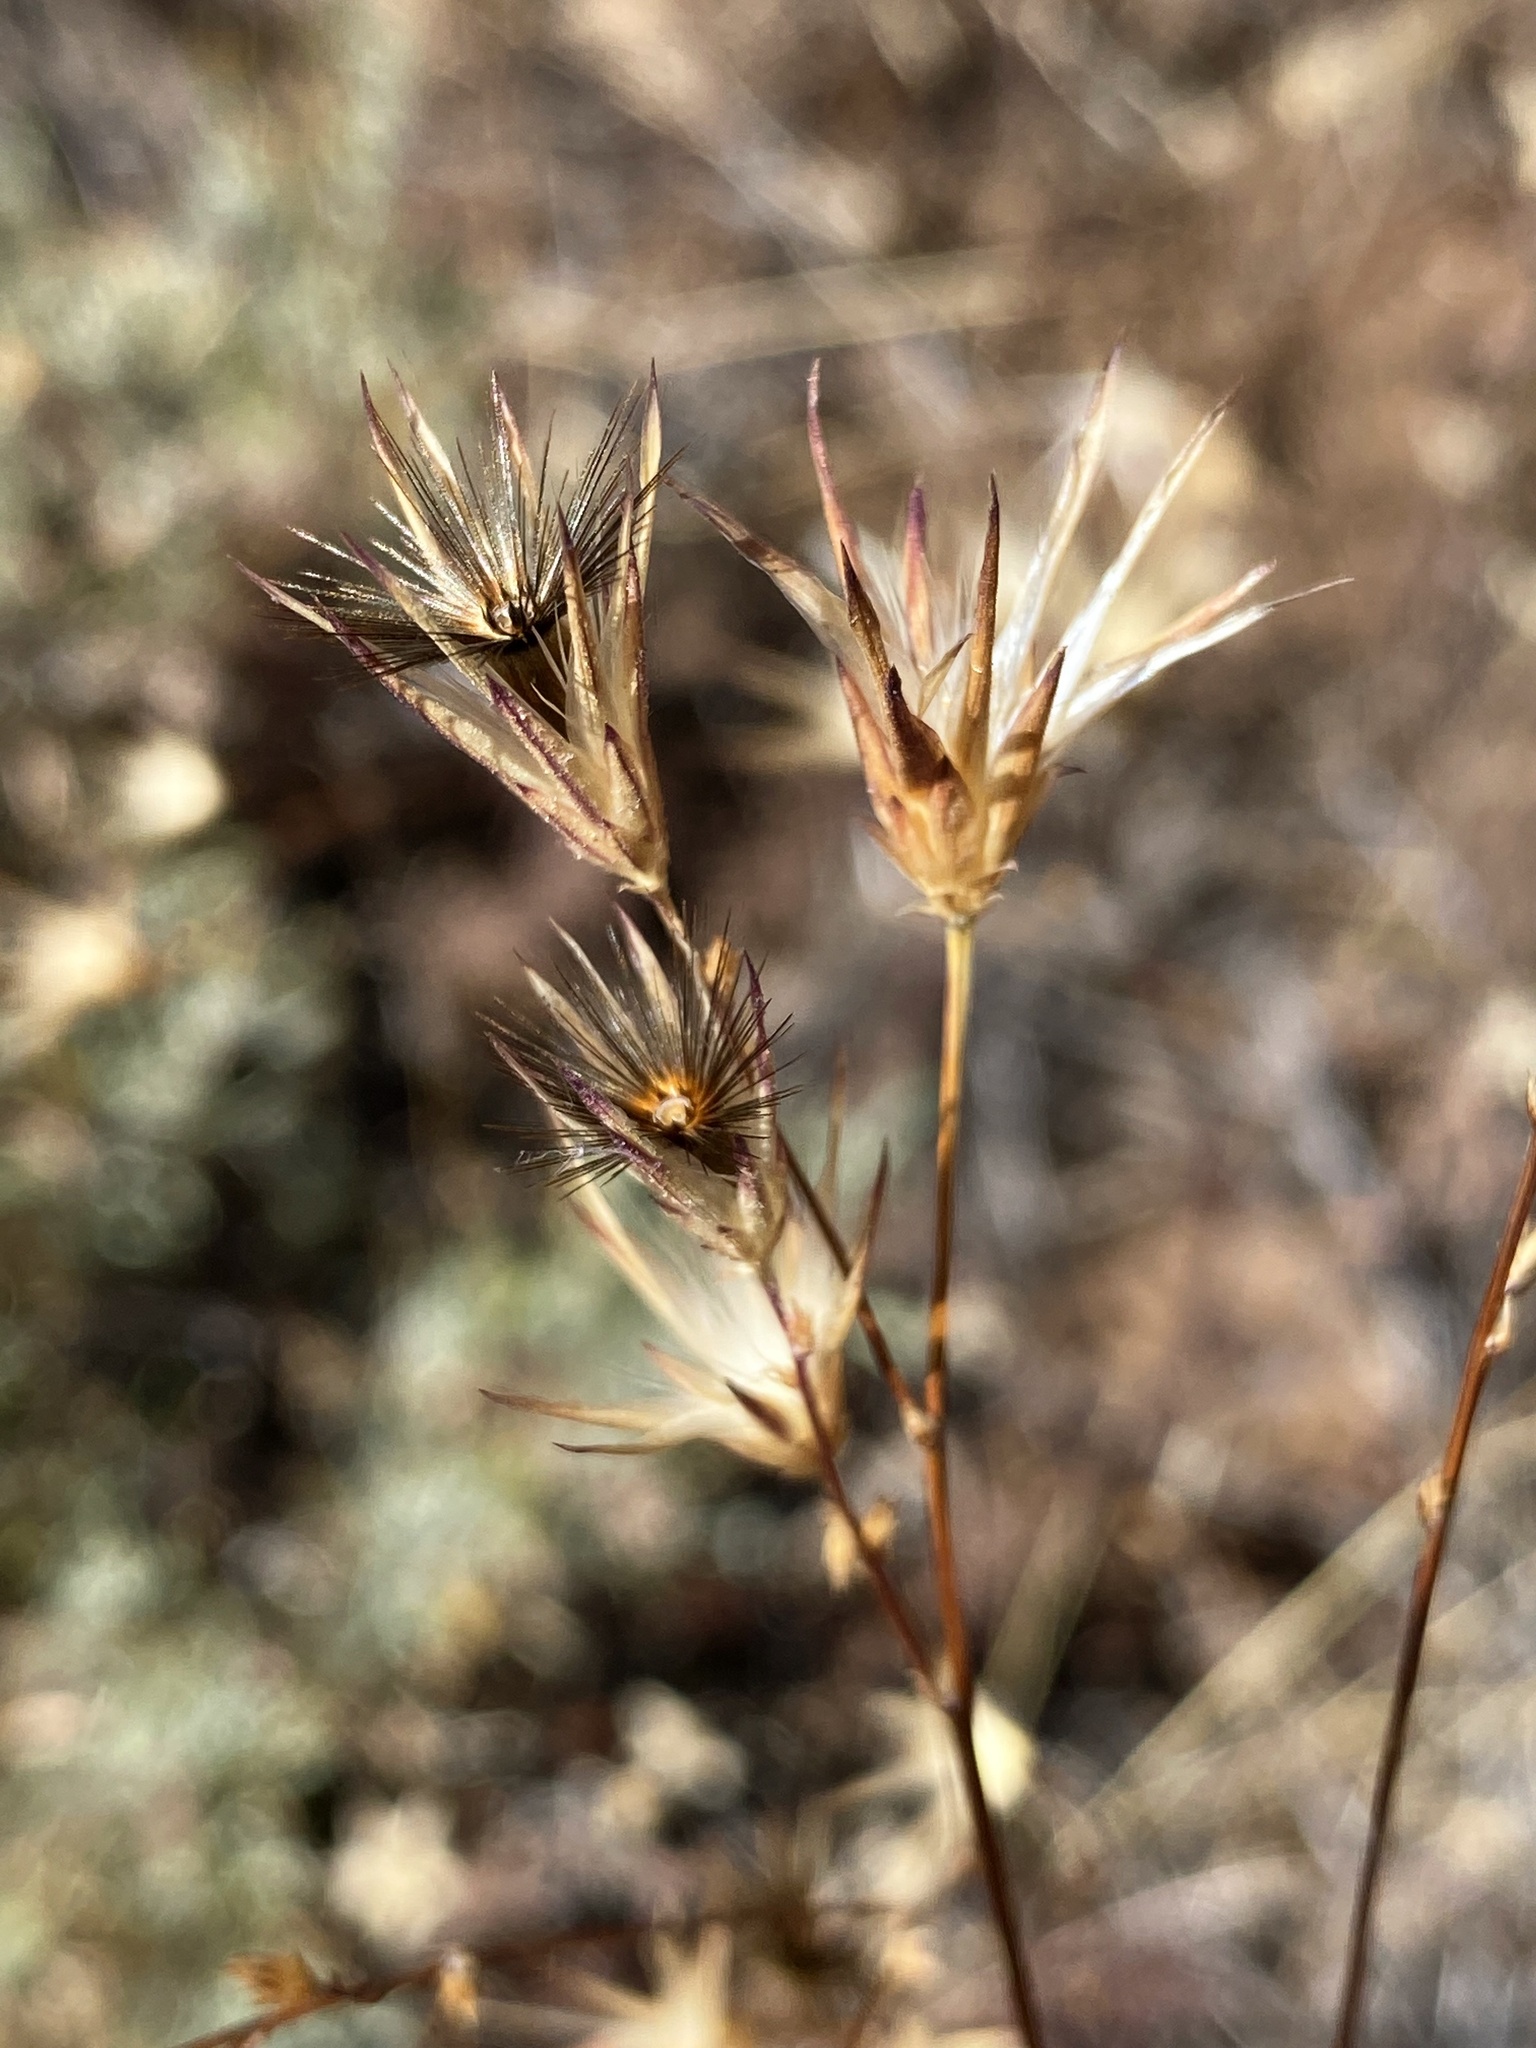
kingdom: Plantae
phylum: Tracheophyta
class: Magnoliopsida
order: Asterales
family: Asteraceae
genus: Crupina
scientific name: Crupina vulgaris
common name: Common crupina
